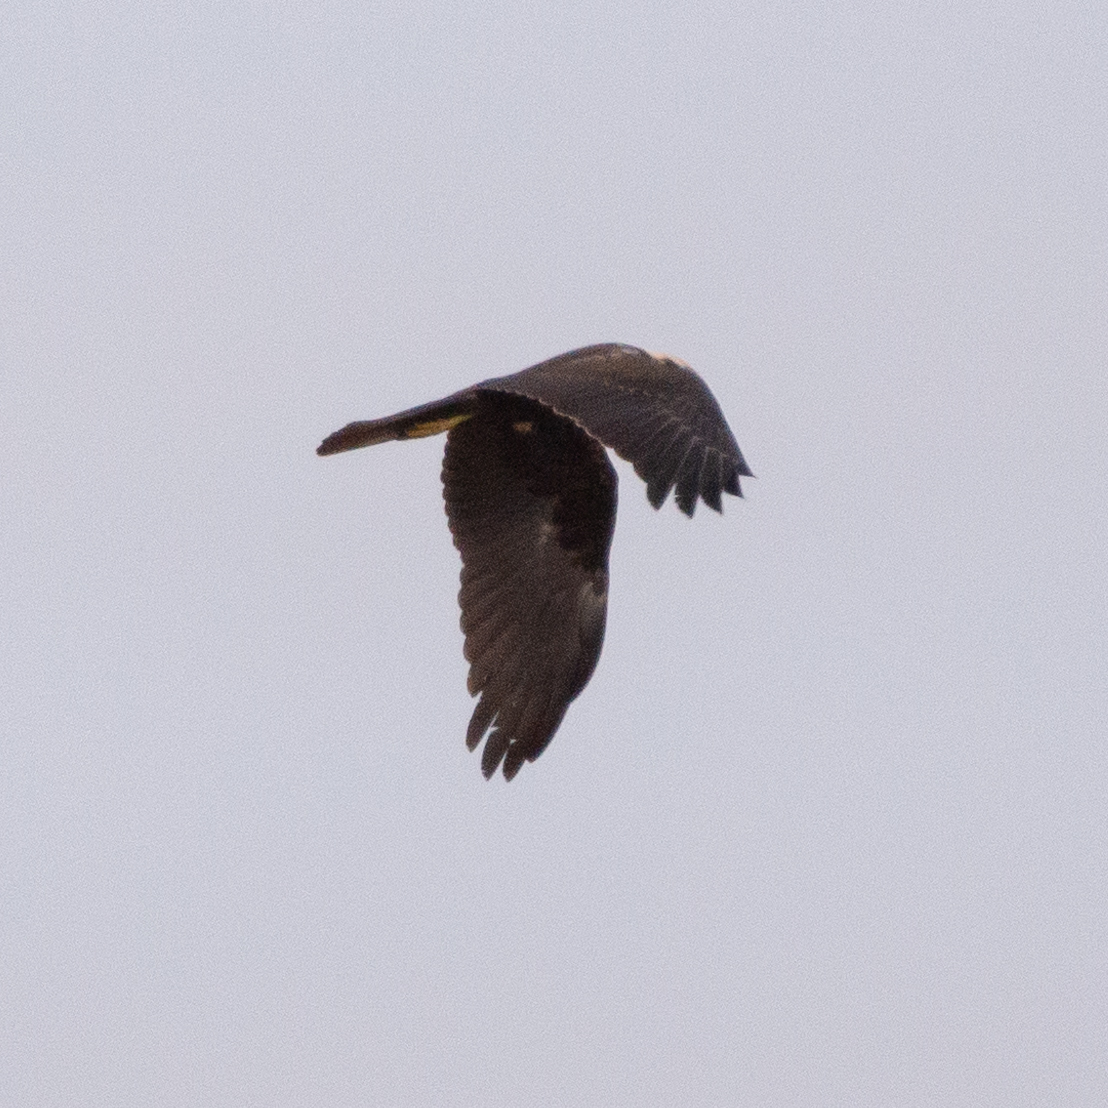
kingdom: Animalia
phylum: Chordata
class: Aves
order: Accipitriformes
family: Accipitridae
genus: Circus
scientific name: Circus aeruginosus
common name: Western marsh harrier
